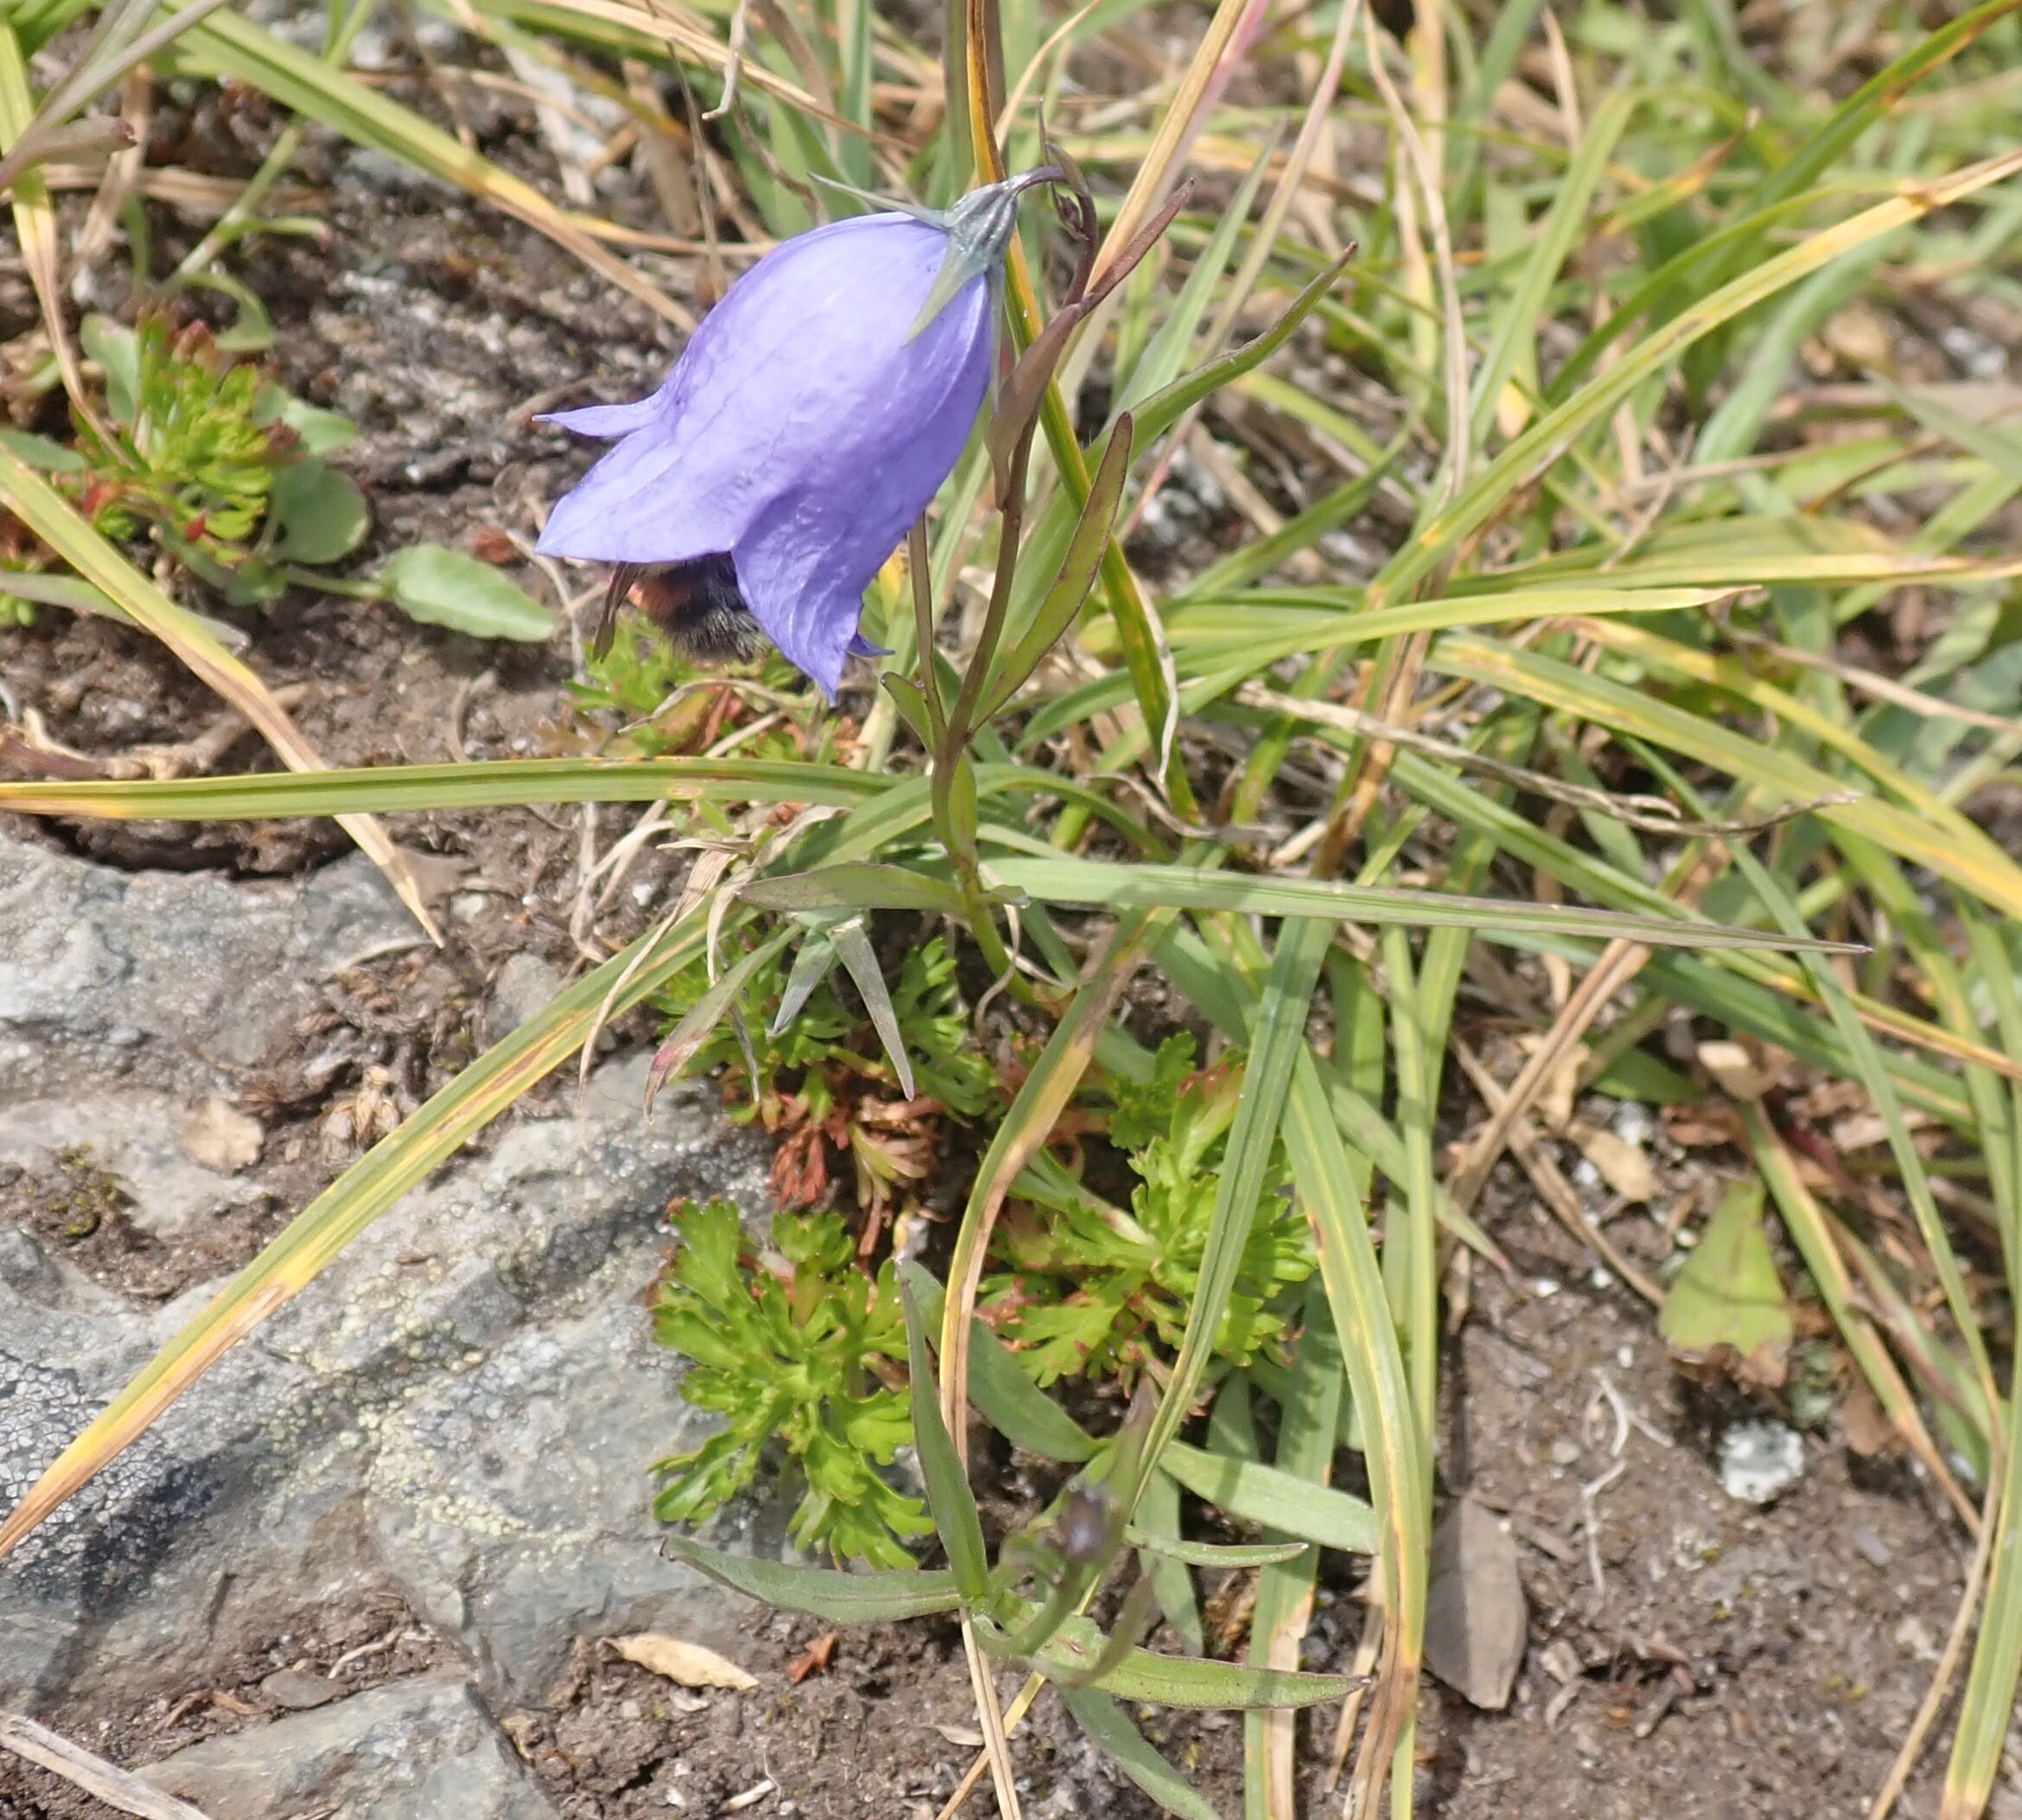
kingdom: Animalia
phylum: Arthropoda
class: Insecta
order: Hymenoptera
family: Apidae
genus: Bombus
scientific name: Bombus flavifrons
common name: Yellow head bumble bee
